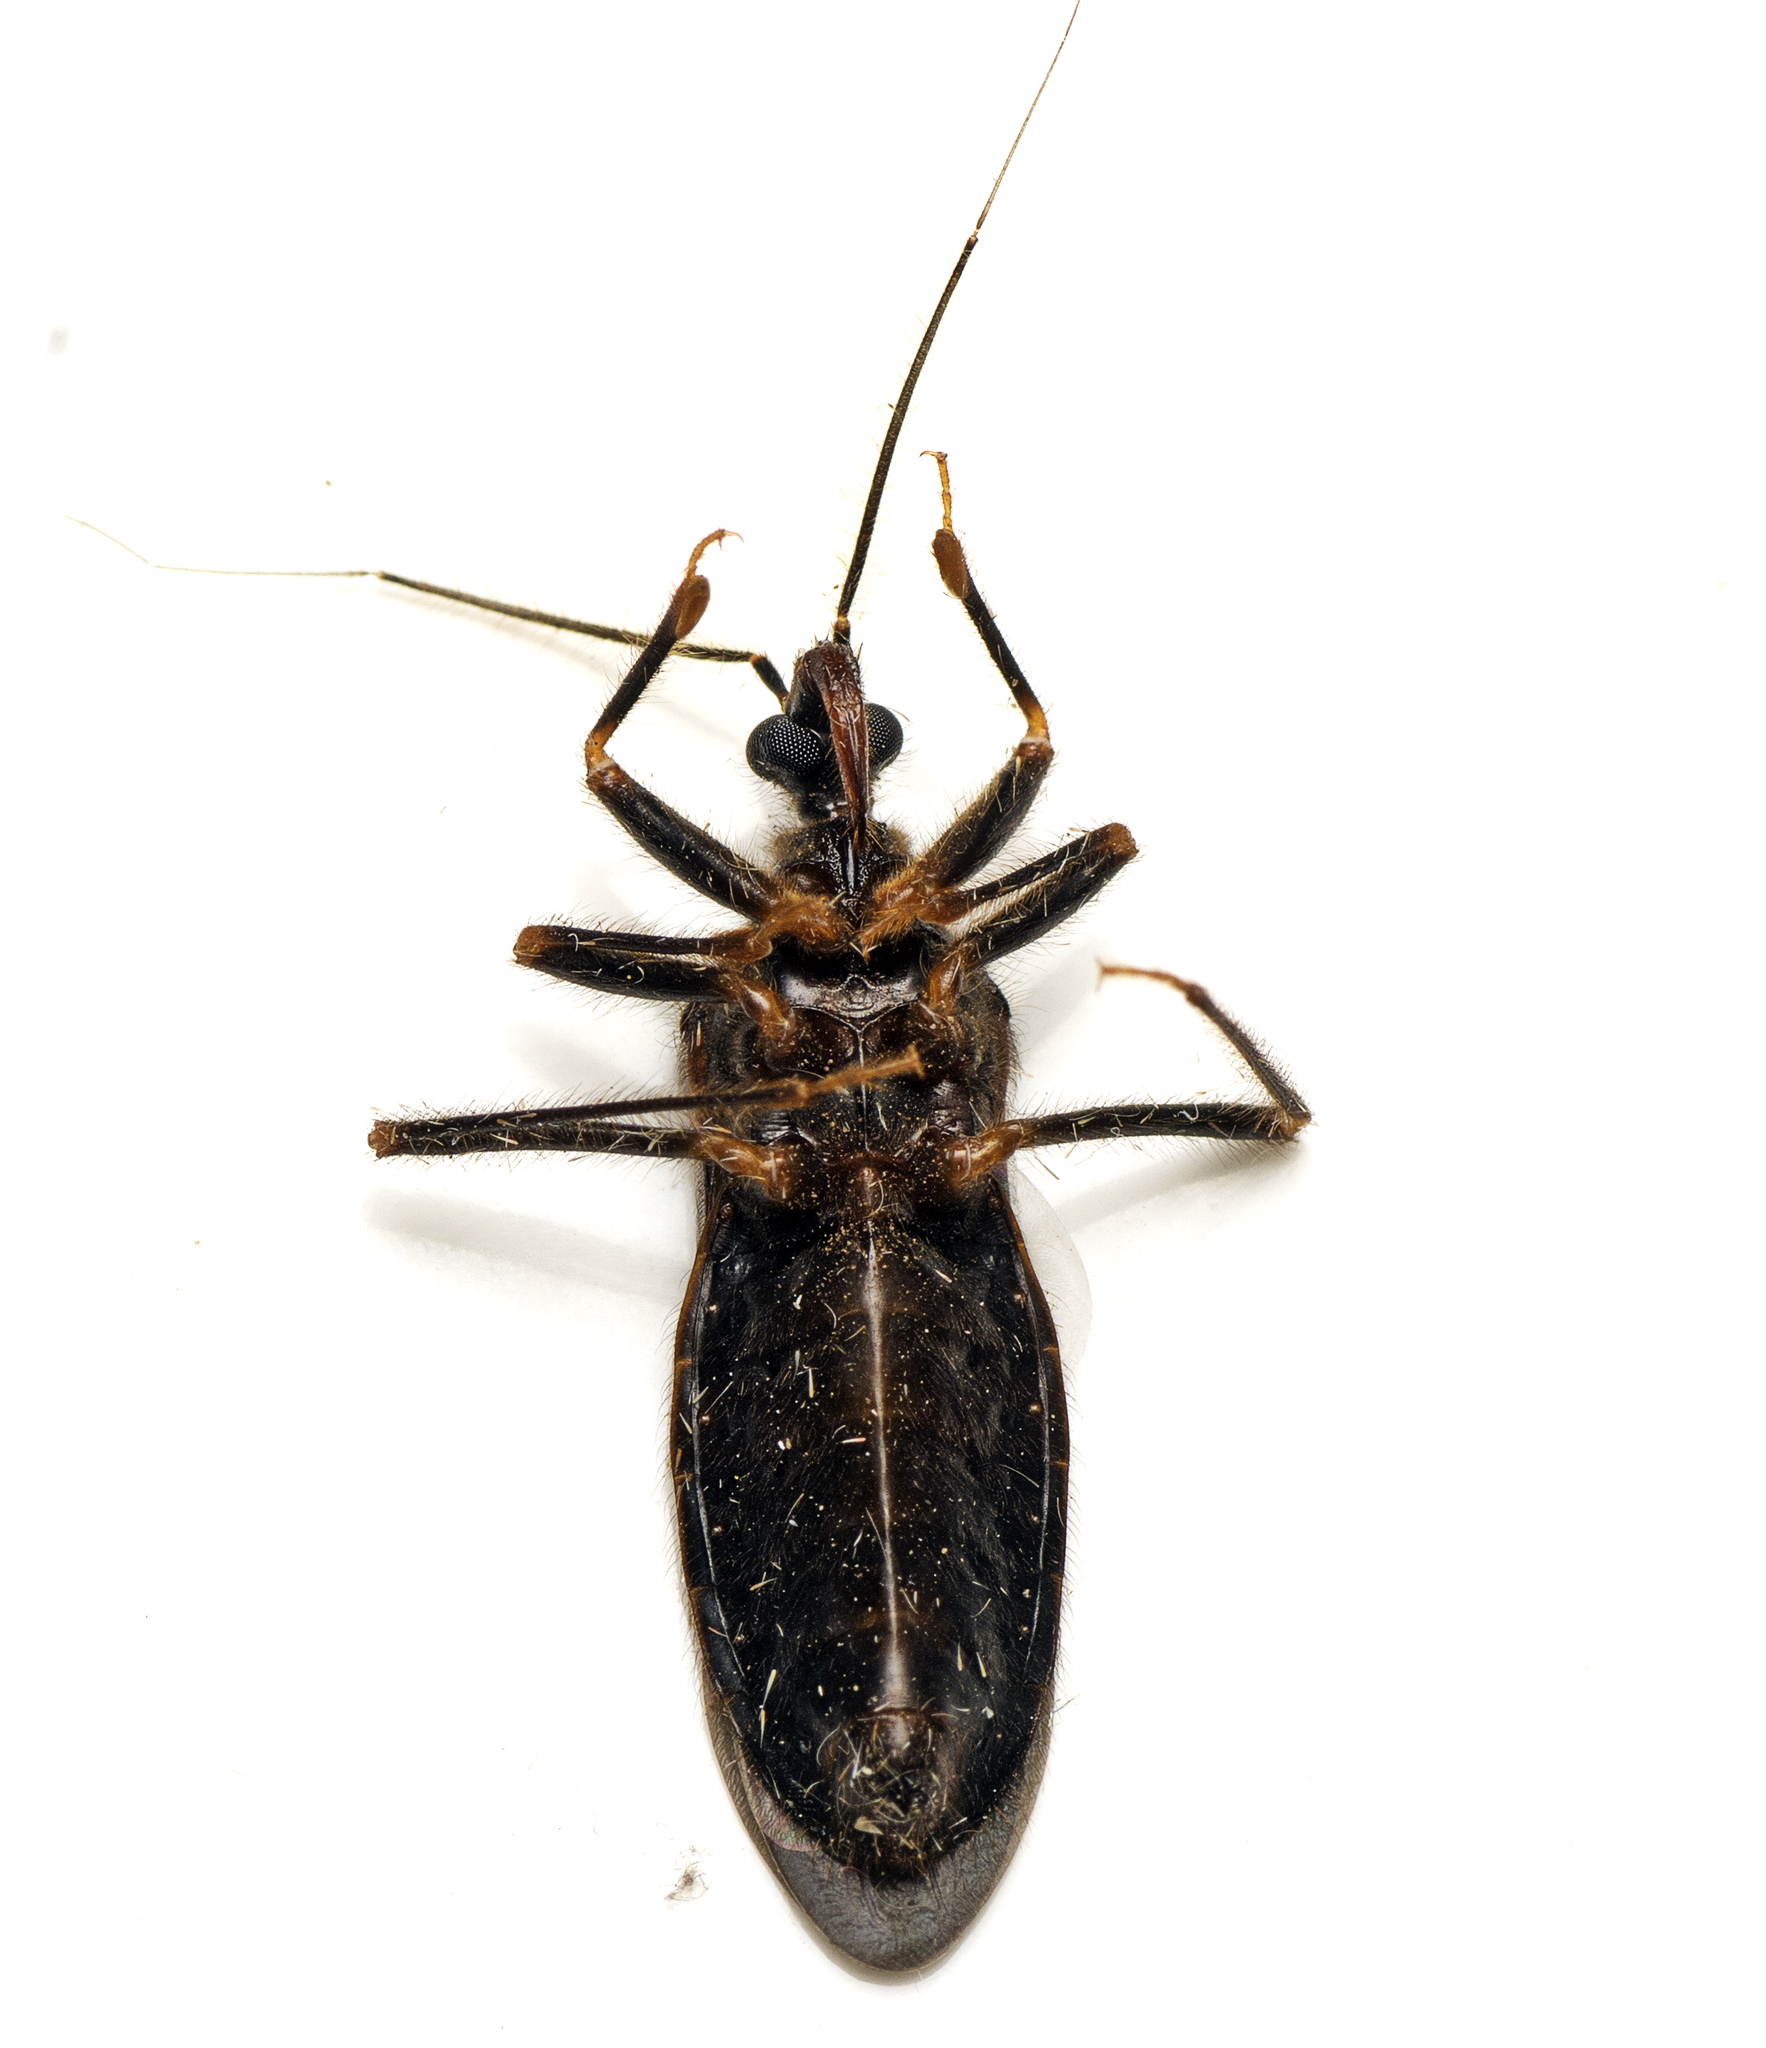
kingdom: Animalia
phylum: Arthropoda
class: Insecta
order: Hemiptera
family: Reduviidae
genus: Horcinia
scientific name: Horcinia distincta
